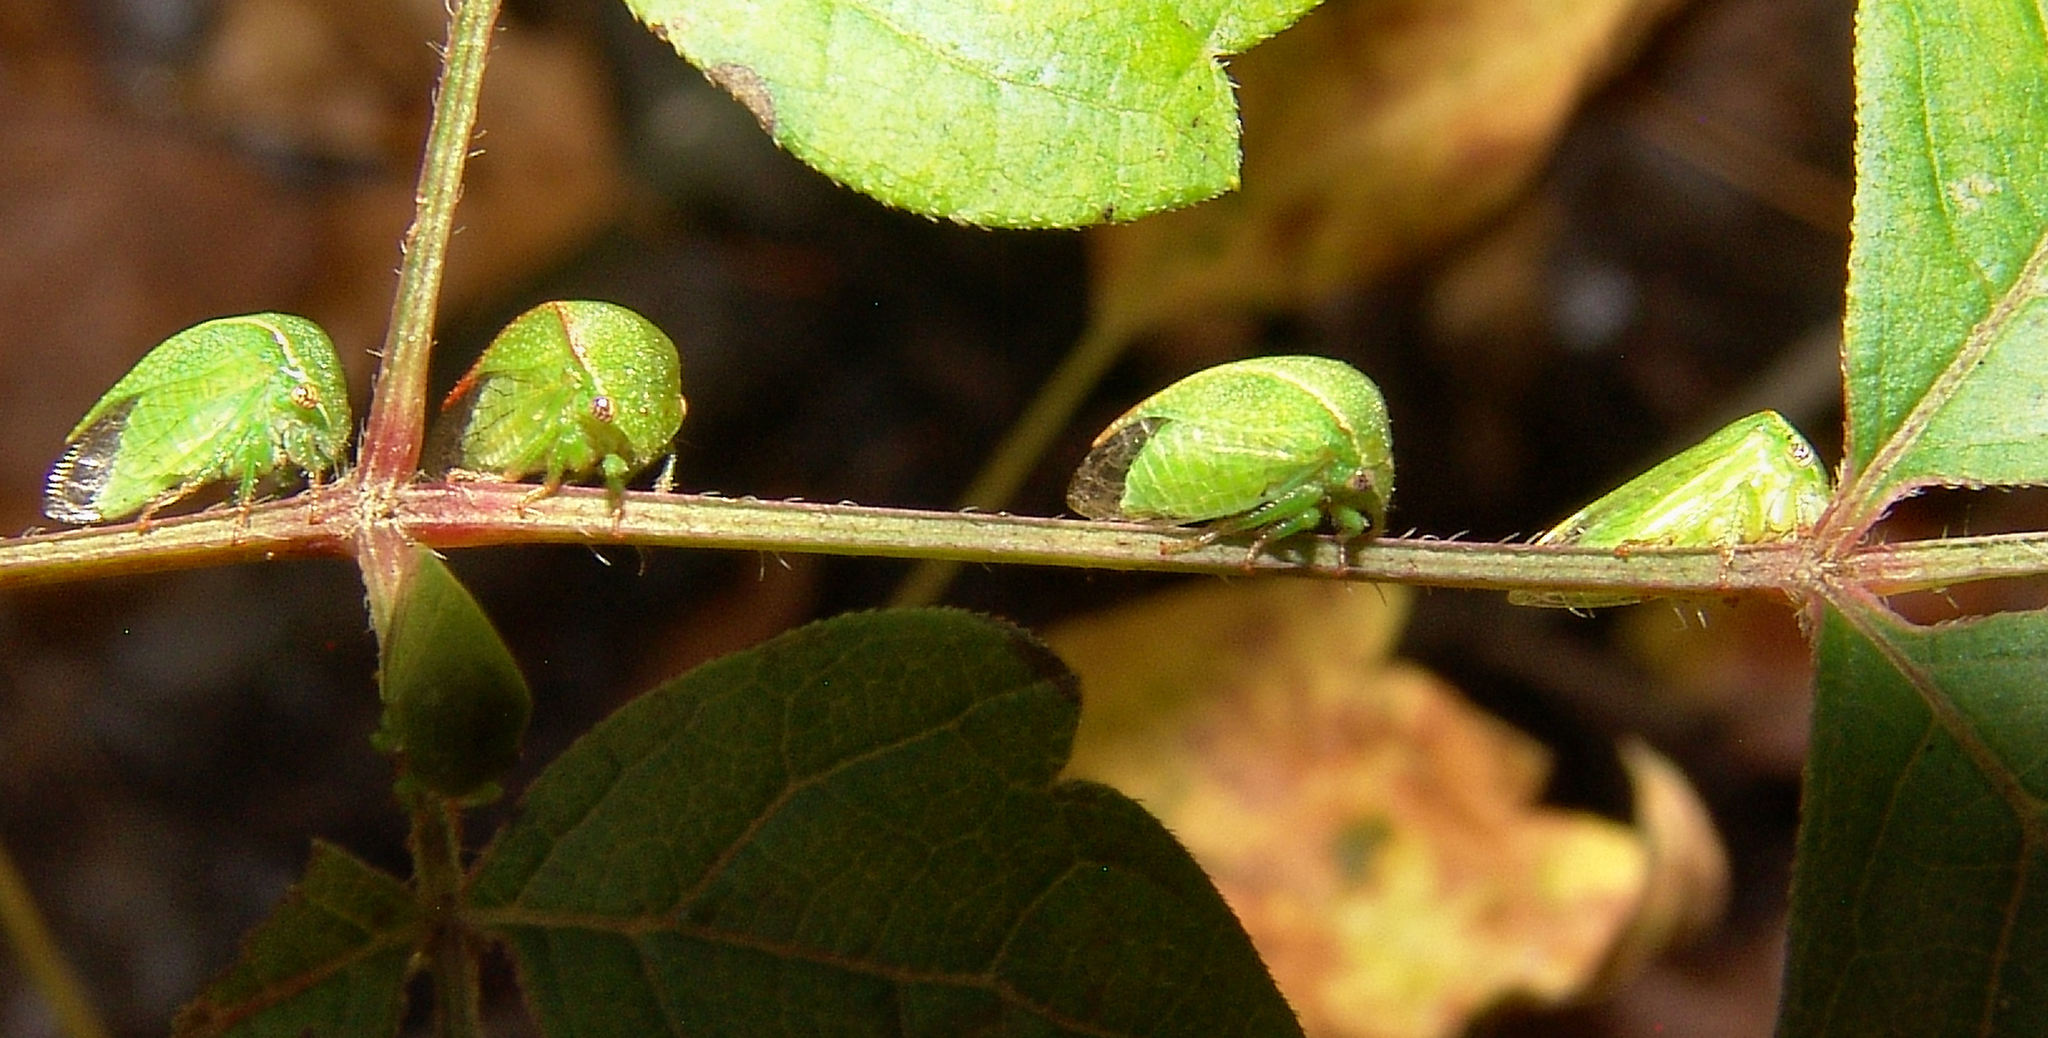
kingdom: Animalia
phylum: Arthropoda
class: Insecta
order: Hemiptera
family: Membracidae
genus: Spissistilus
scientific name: Spissistilus festina
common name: Membracid bug
